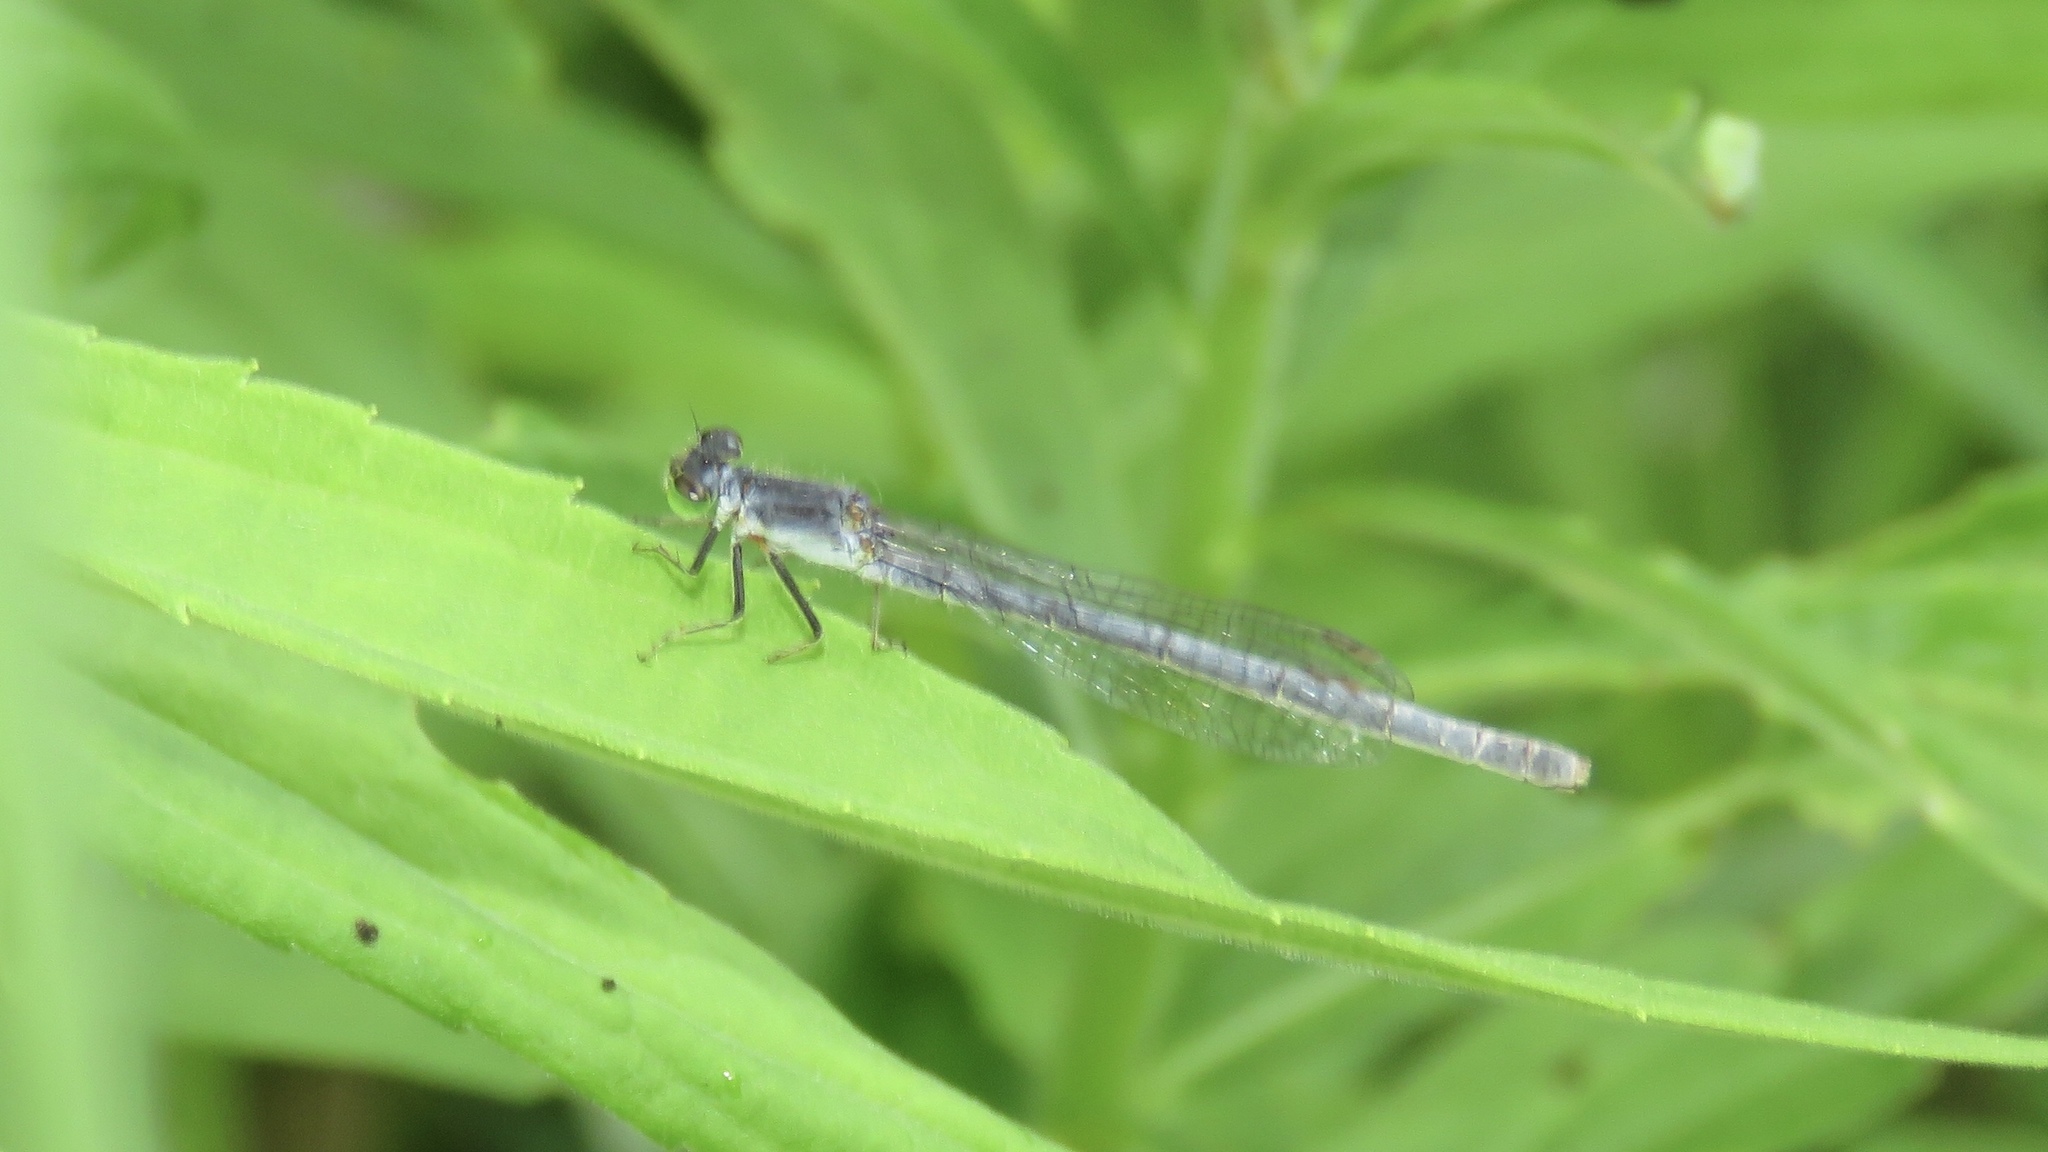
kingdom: Animalia
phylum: Arthropoda
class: Insecta
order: Odonata
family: Coenagrionidae
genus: Ischnura
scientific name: Ischnura verticalis
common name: Eastern forktail
